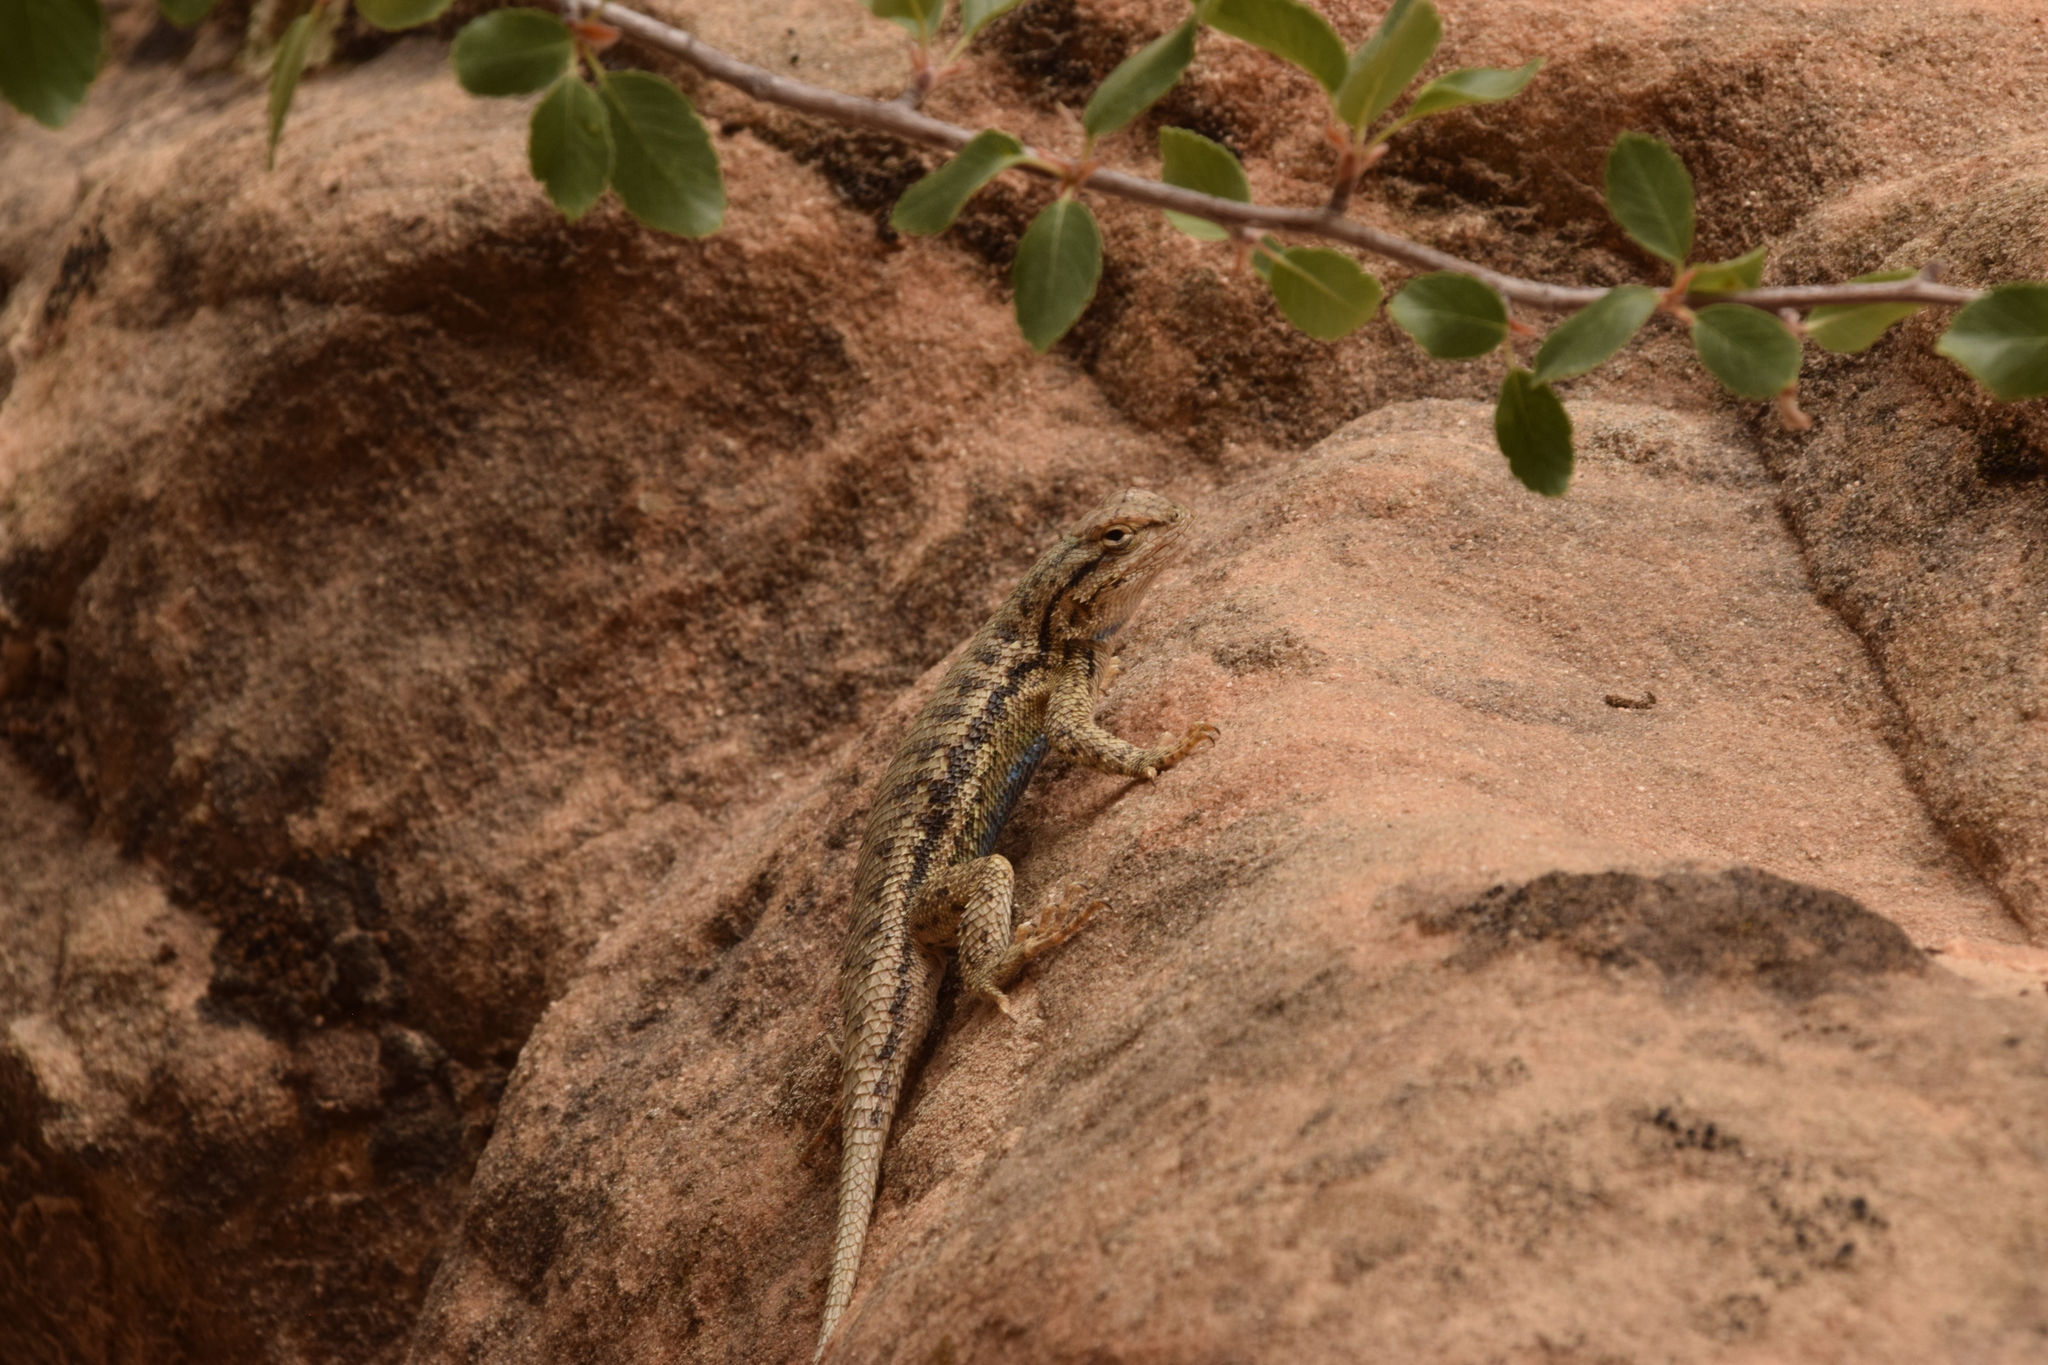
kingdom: Animalia
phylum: Chordata
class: Squamata
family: Phrynosomatidae
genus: Sceloporus
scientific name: Sceloporus tristichus
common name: Plateau fence lizard
